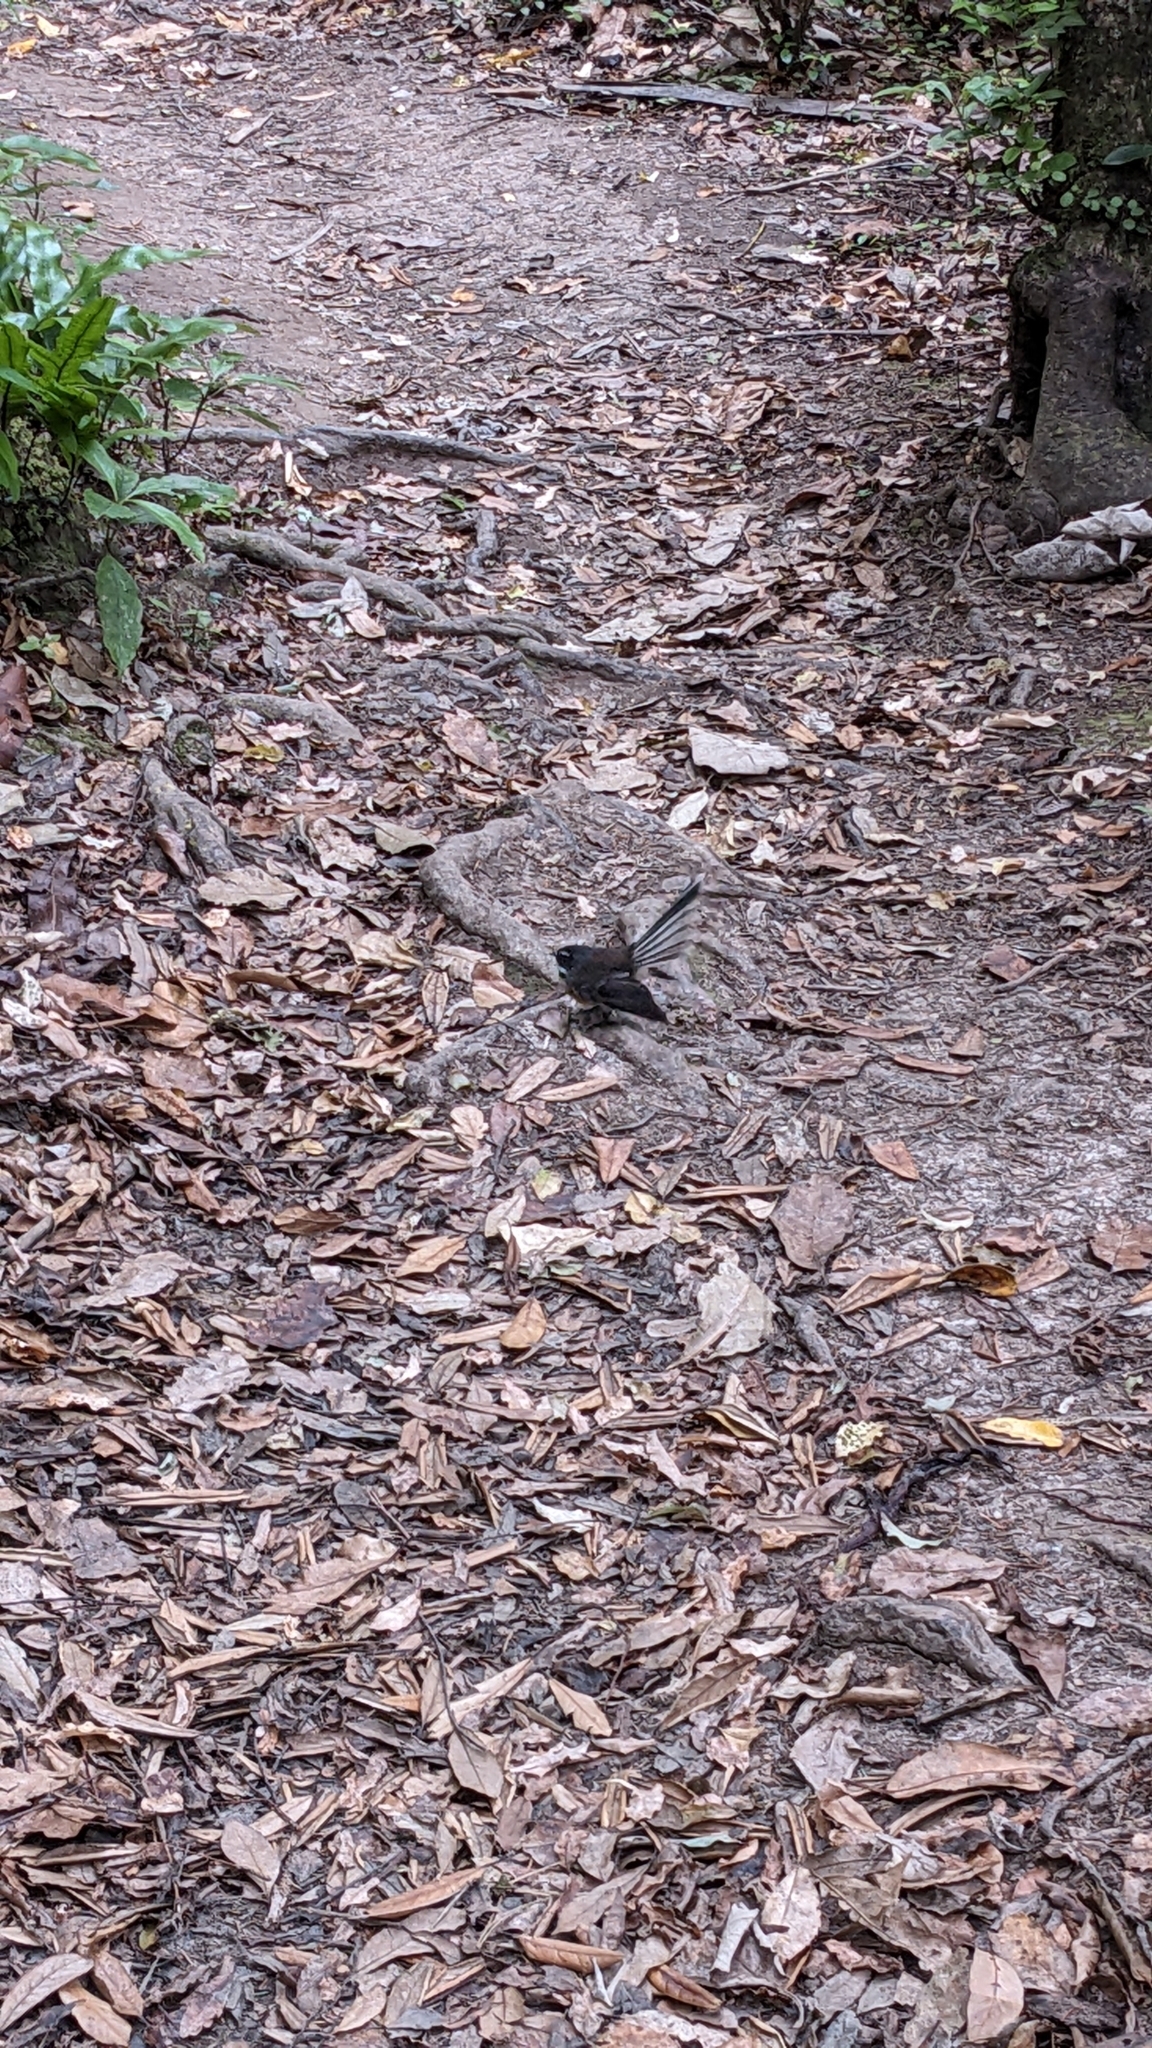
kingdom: Animalia
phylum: Chordata
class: Aves
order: Passeriformes
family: Rhipiduridae
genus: Rhipidura
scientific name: Rhipidura fuliginosa
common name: New zealand fantail
